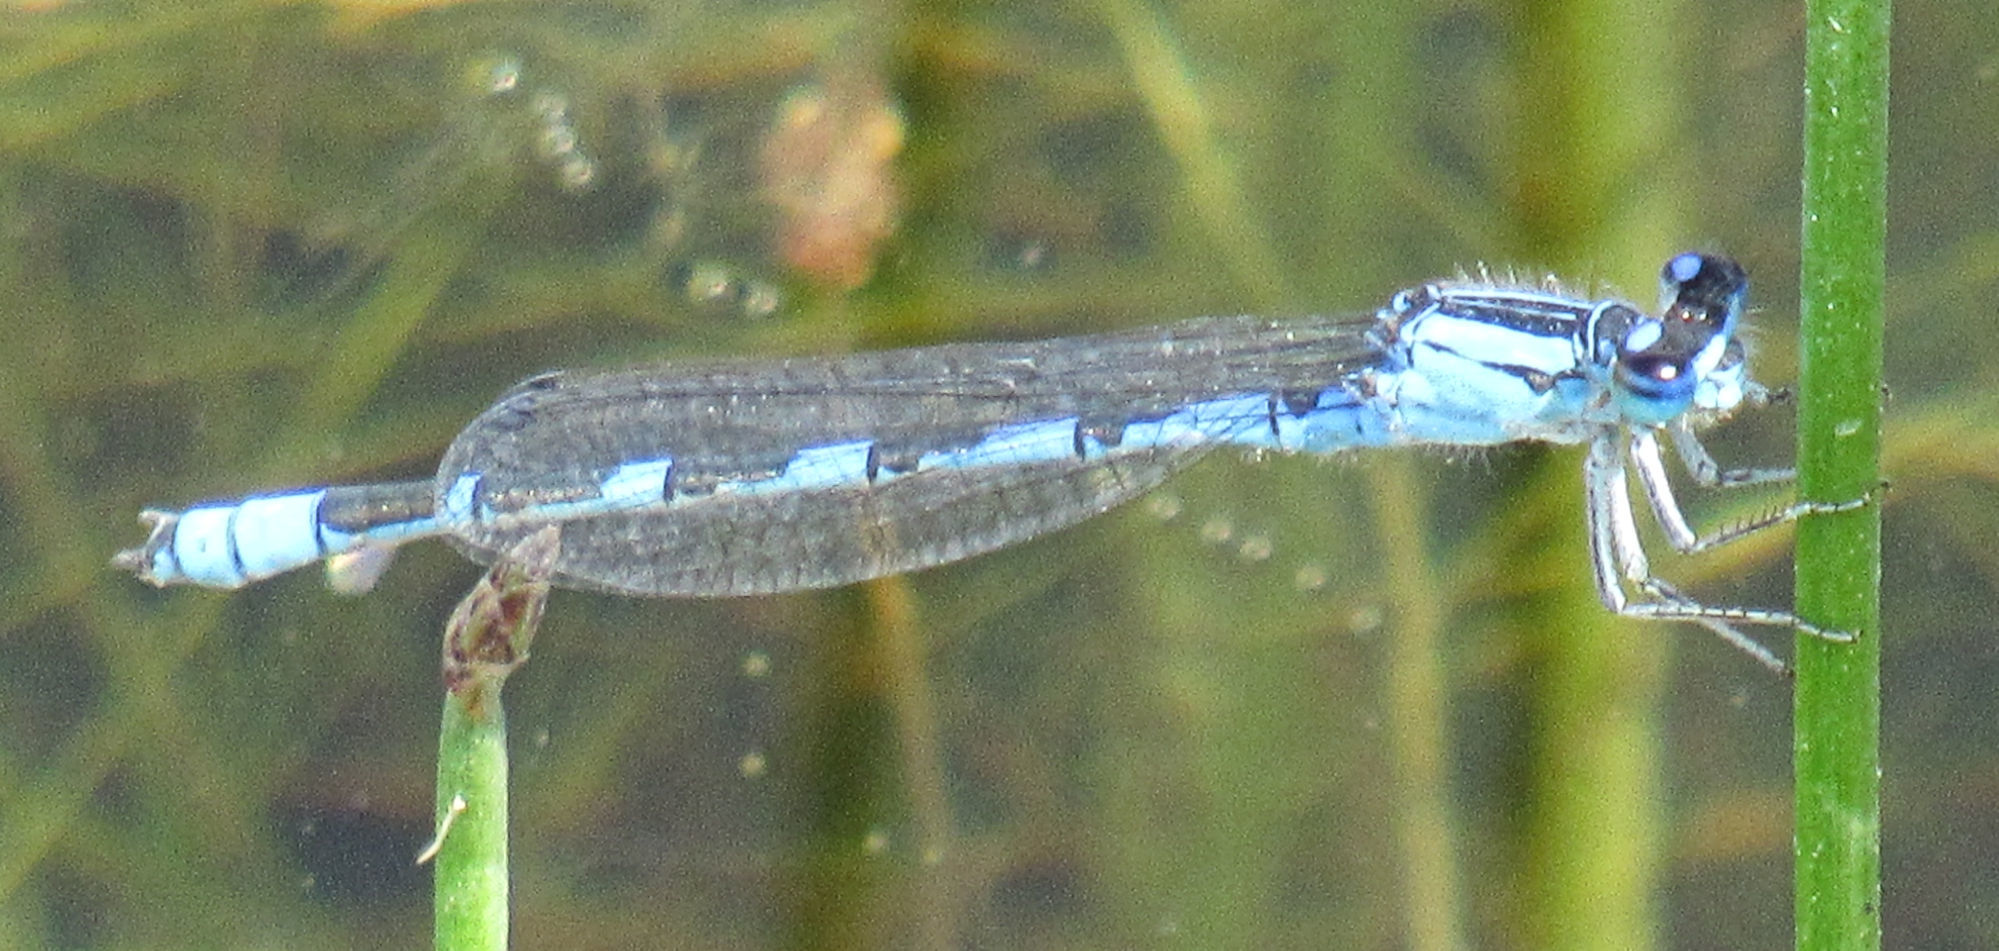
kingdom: Animalia
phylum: Arthropoda
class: Insecta
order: Odonata
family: Coenagrionidae
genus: Enallagma
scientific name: Enallagma anna
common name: River bluet
